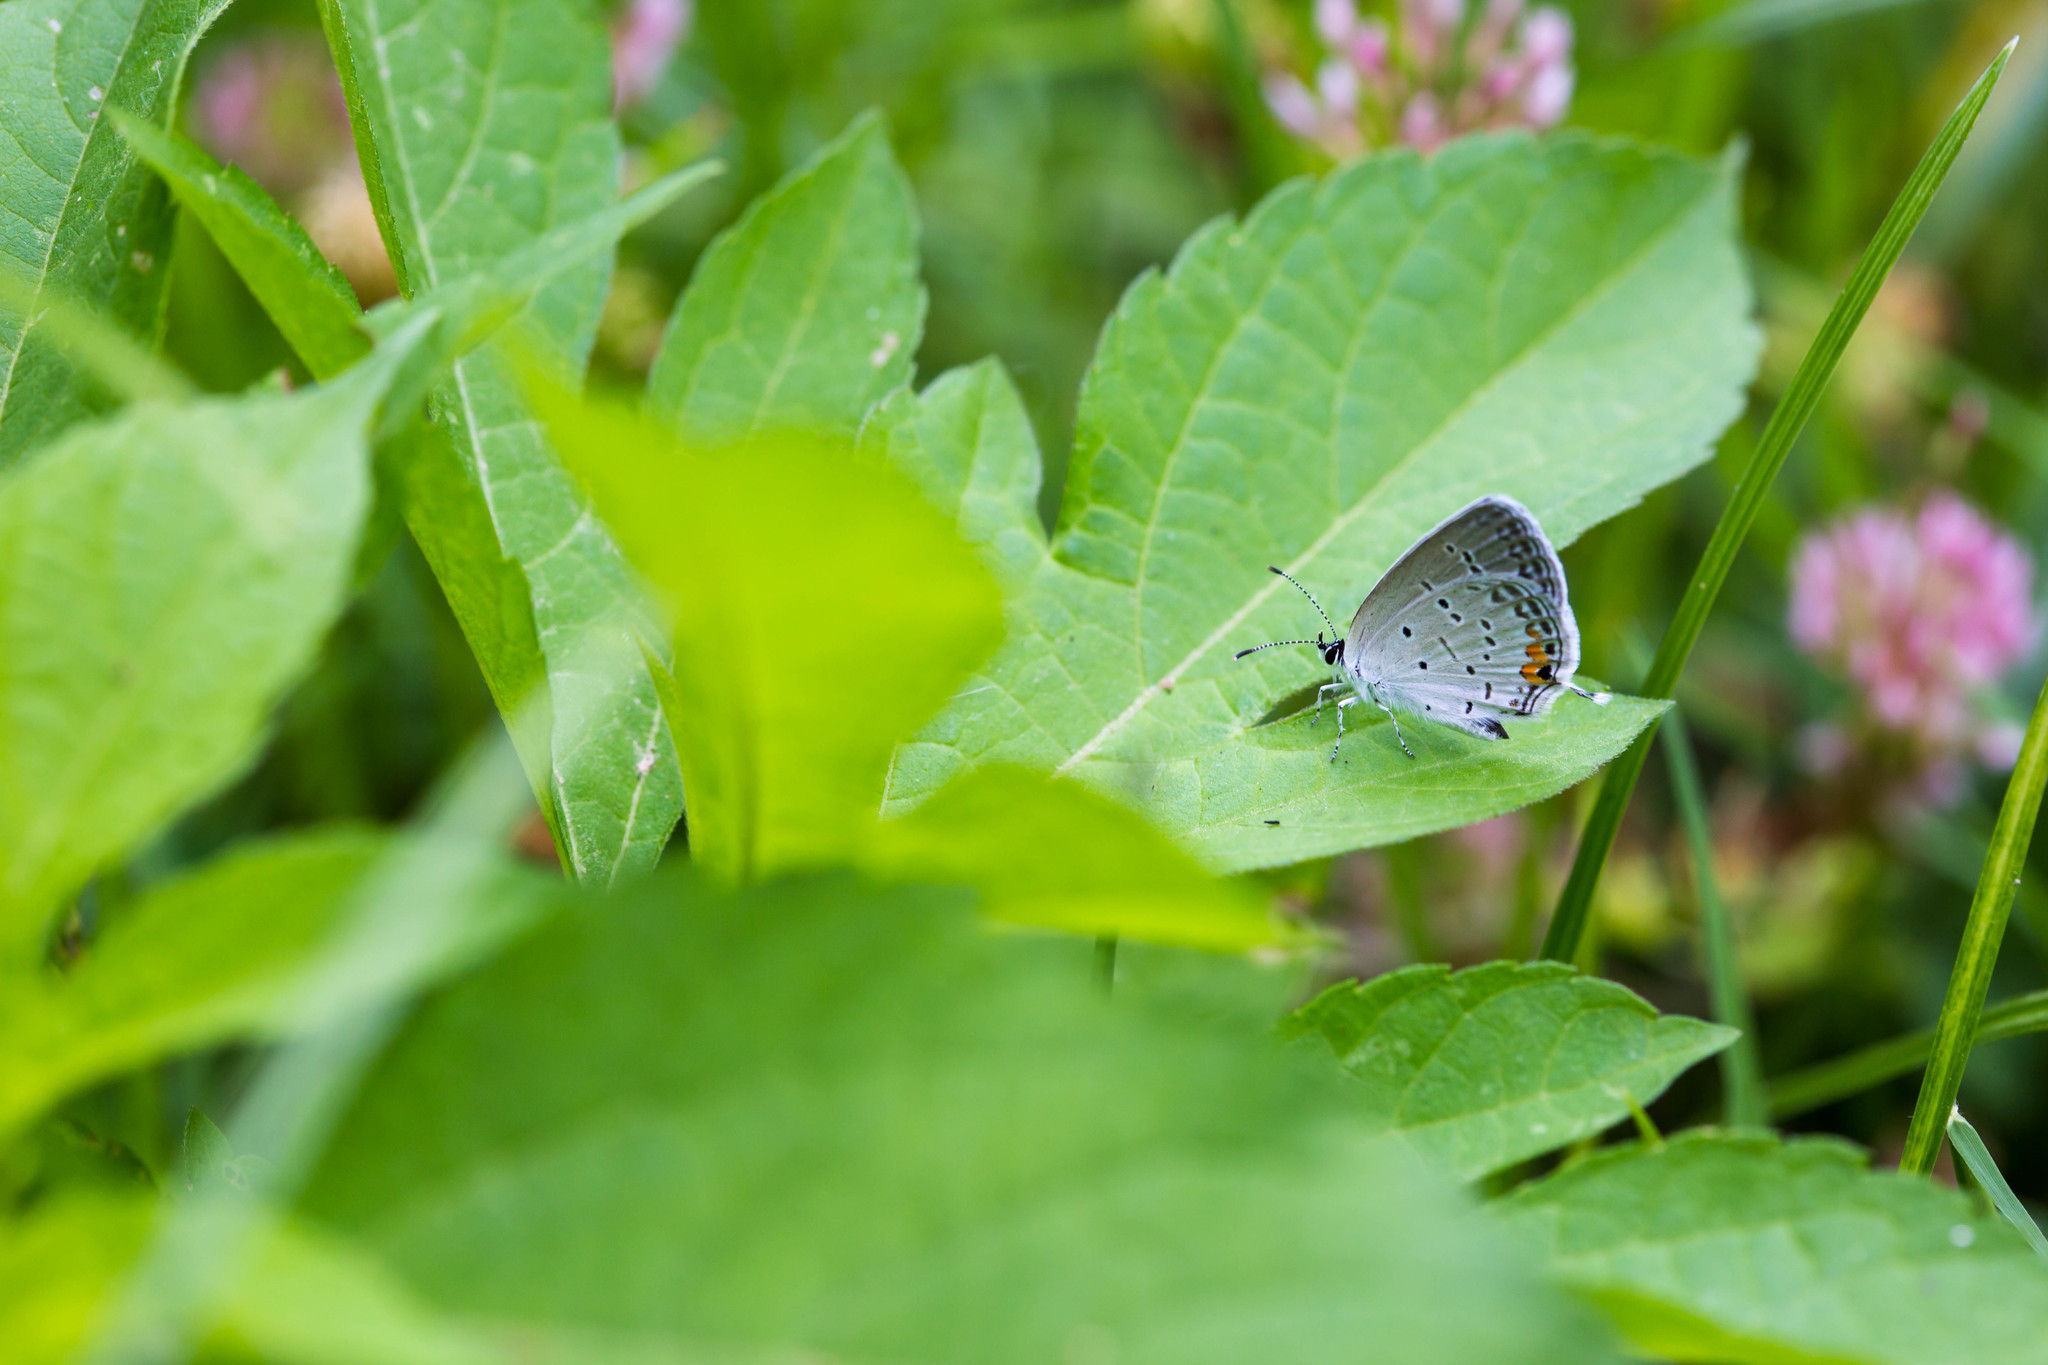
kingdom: Animalia
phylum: Arthropoda
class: Insecta
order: Lepidoptera
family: Lycaenidae
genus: Elkalyce
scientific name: Elkalyce comyntas
